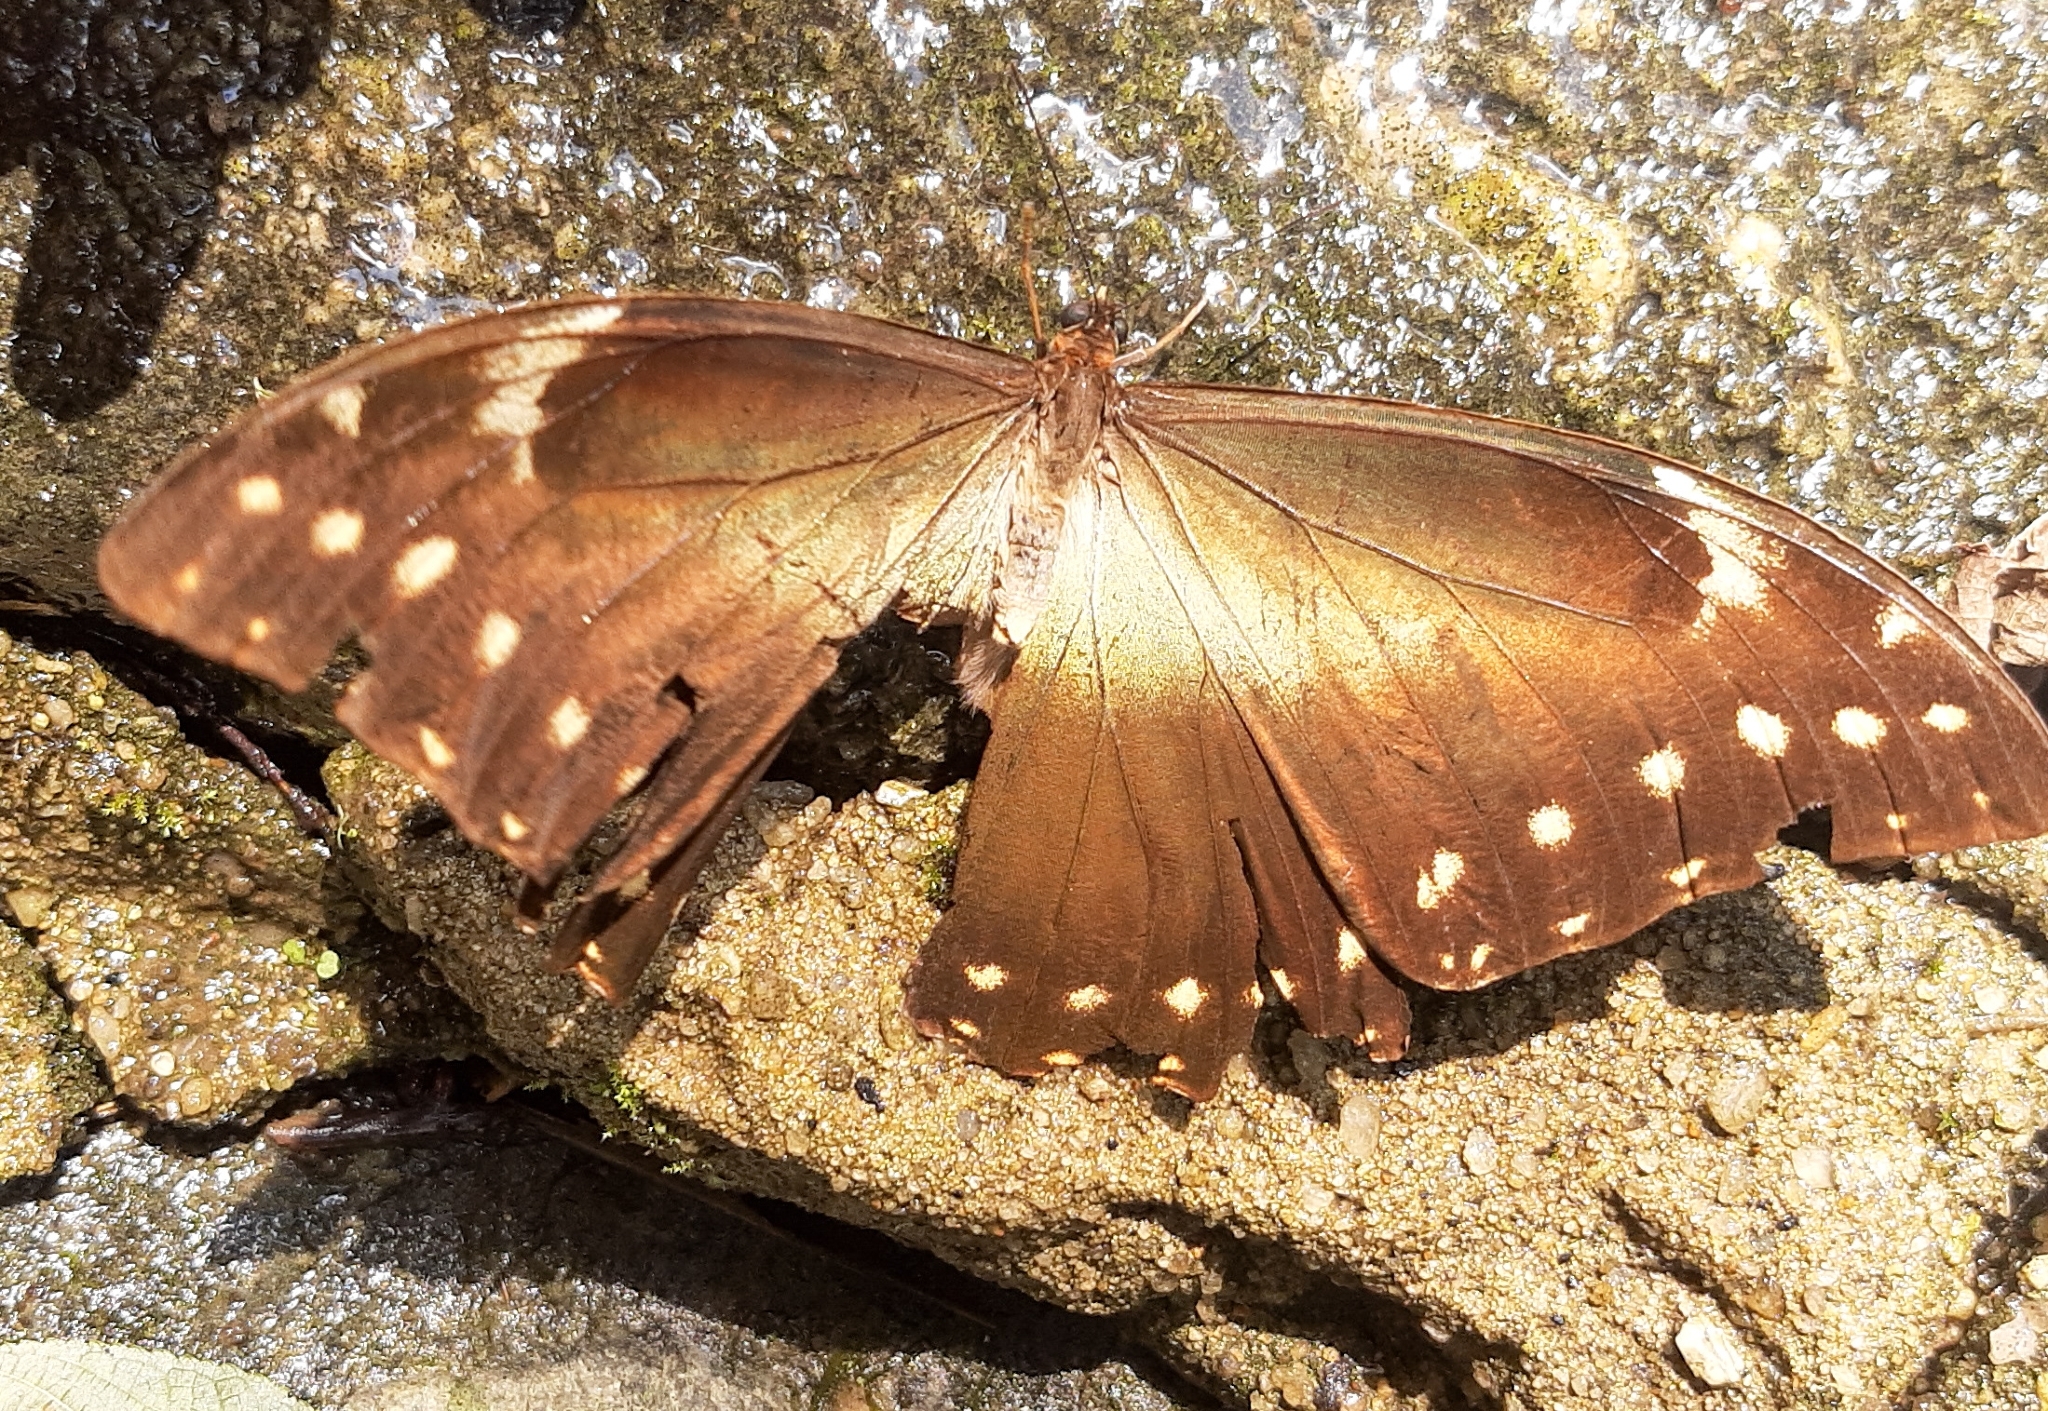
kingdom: Animalia
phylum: Arthropoda
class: Insecta
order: Lepidoptera
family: Nymphalidae
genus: Morpho
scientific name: Morpho hercules
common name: Hercules morpho
